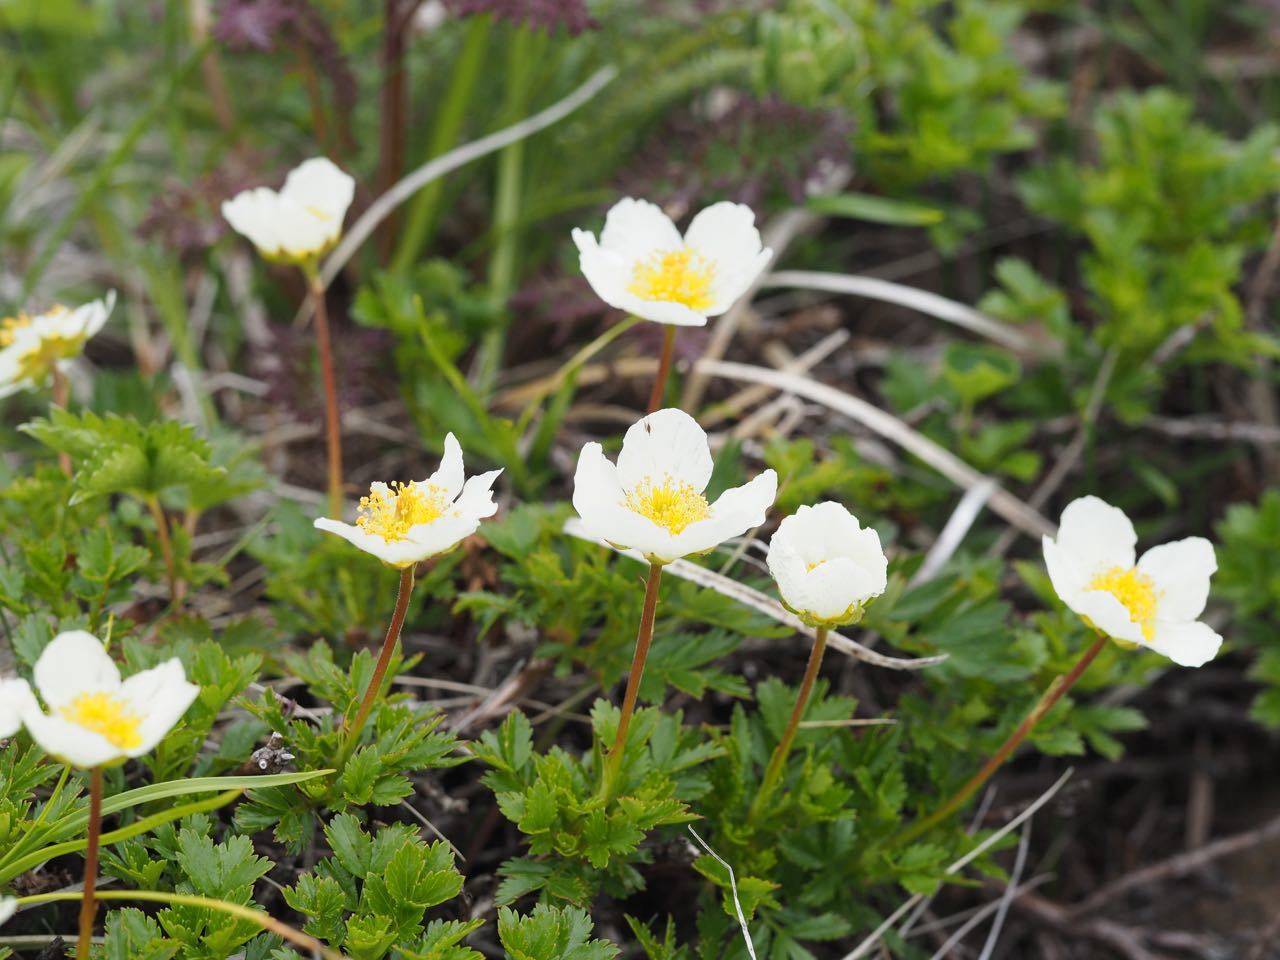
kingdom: Plantae
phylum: Tracheophyta
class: Magnoliopsida
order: Rosales
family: Rosaceae
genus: Geum
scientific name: Geum pentapetalum
